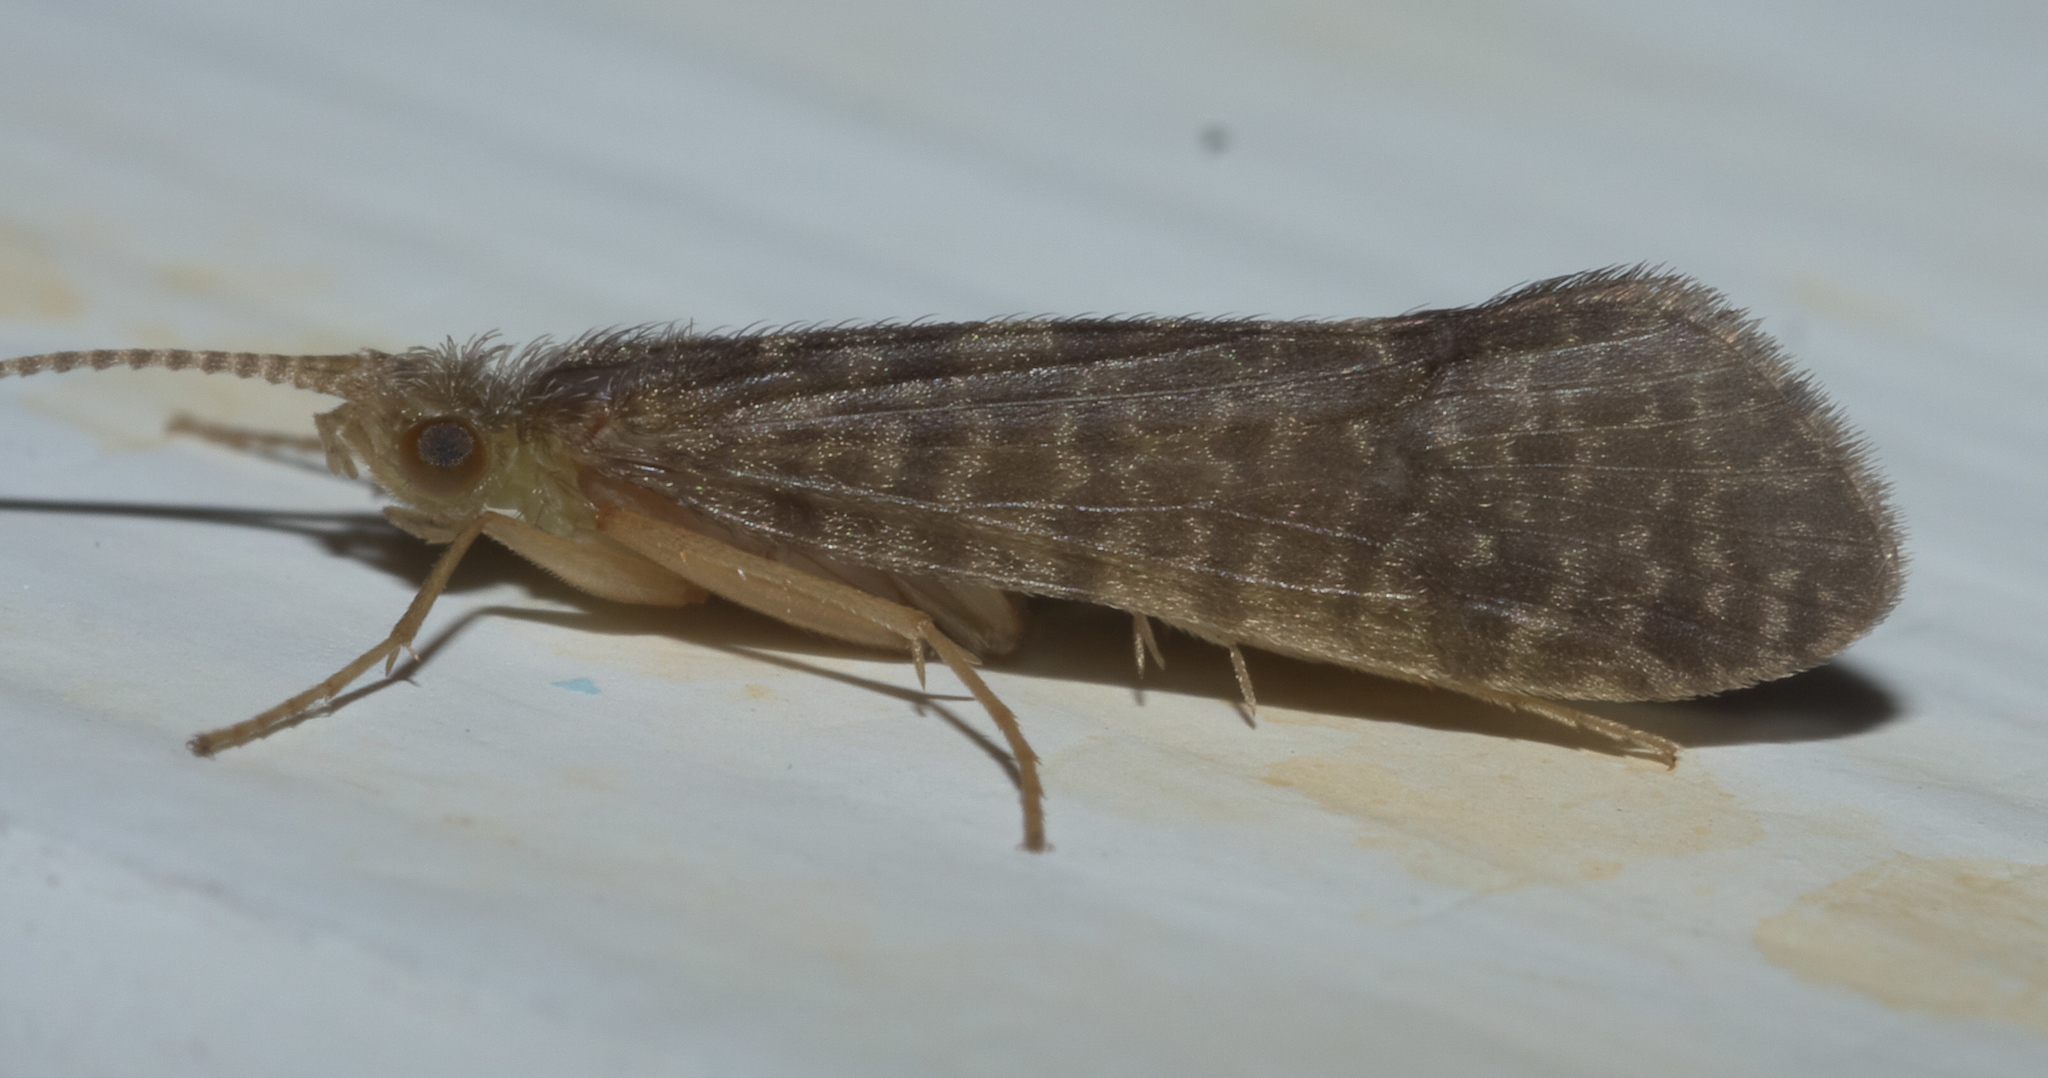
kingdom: Animalia
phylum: Arthropoda
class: Insecta
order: Trichoptera
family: Chathamiidae
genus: Philanisus
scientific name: Philanisus plebeius
